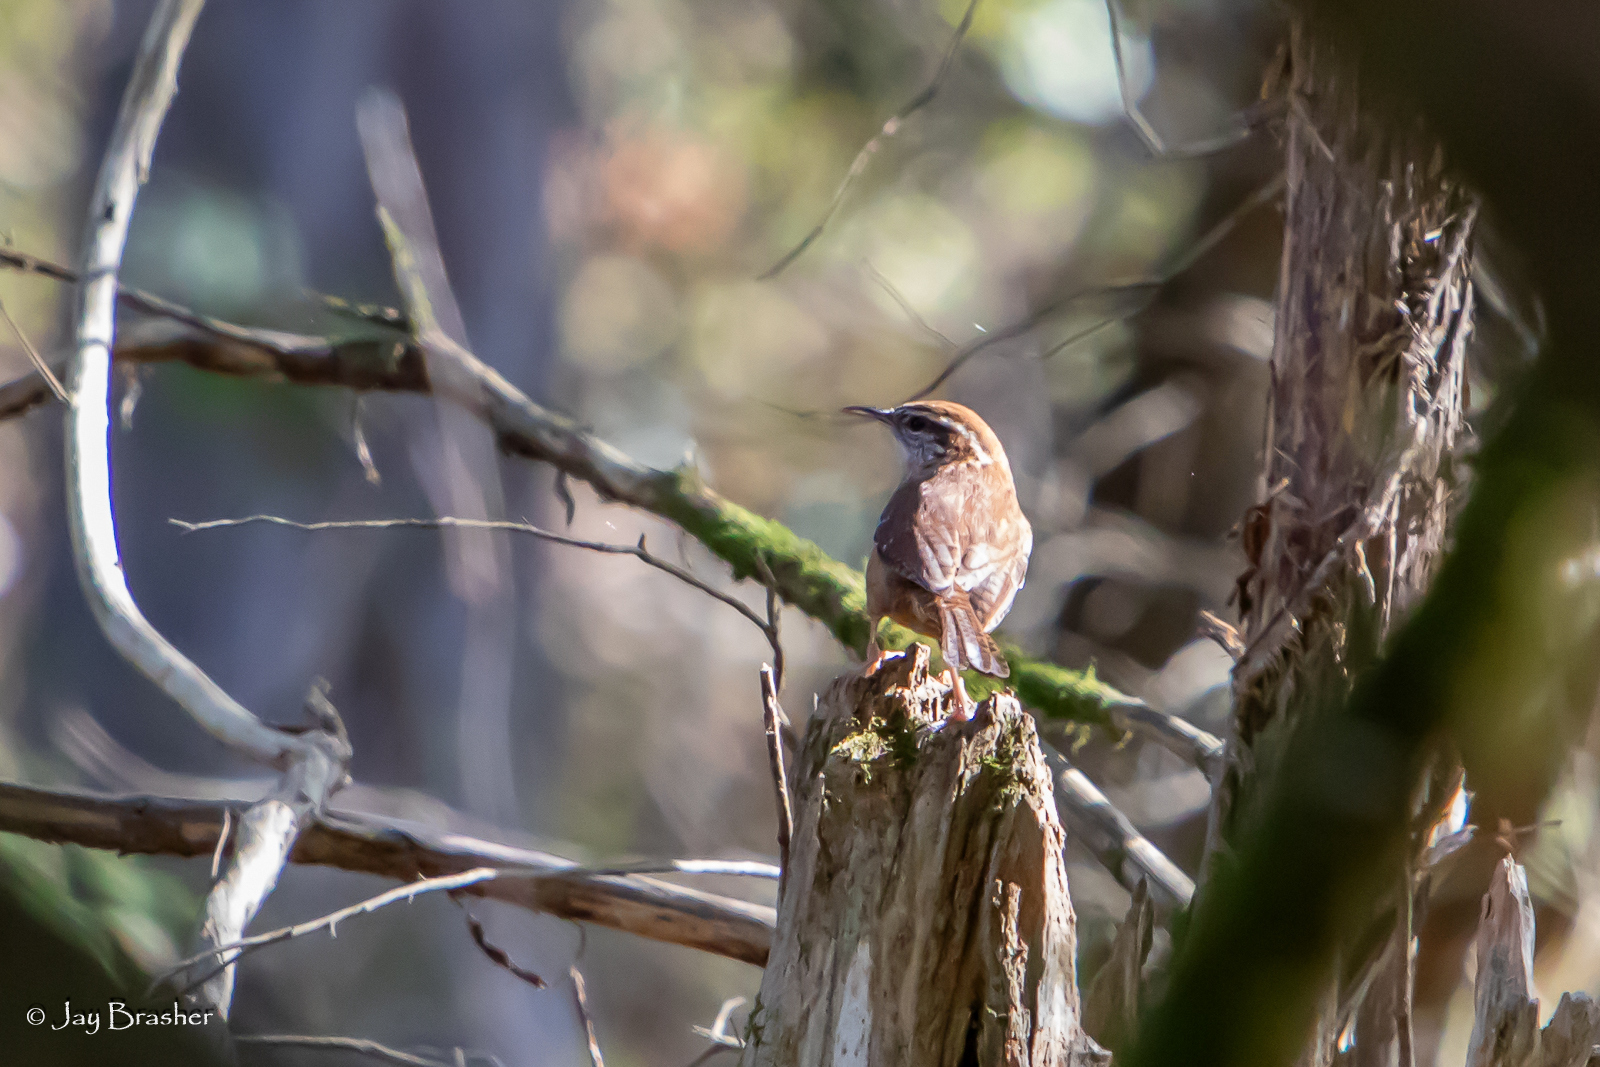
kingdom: Animalia
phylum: Chordata
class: Aves
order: Passeriformes
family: Troglodytidae
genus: Thryothorus
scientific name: Thryothorus ludovicianus
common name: Carolina wren
